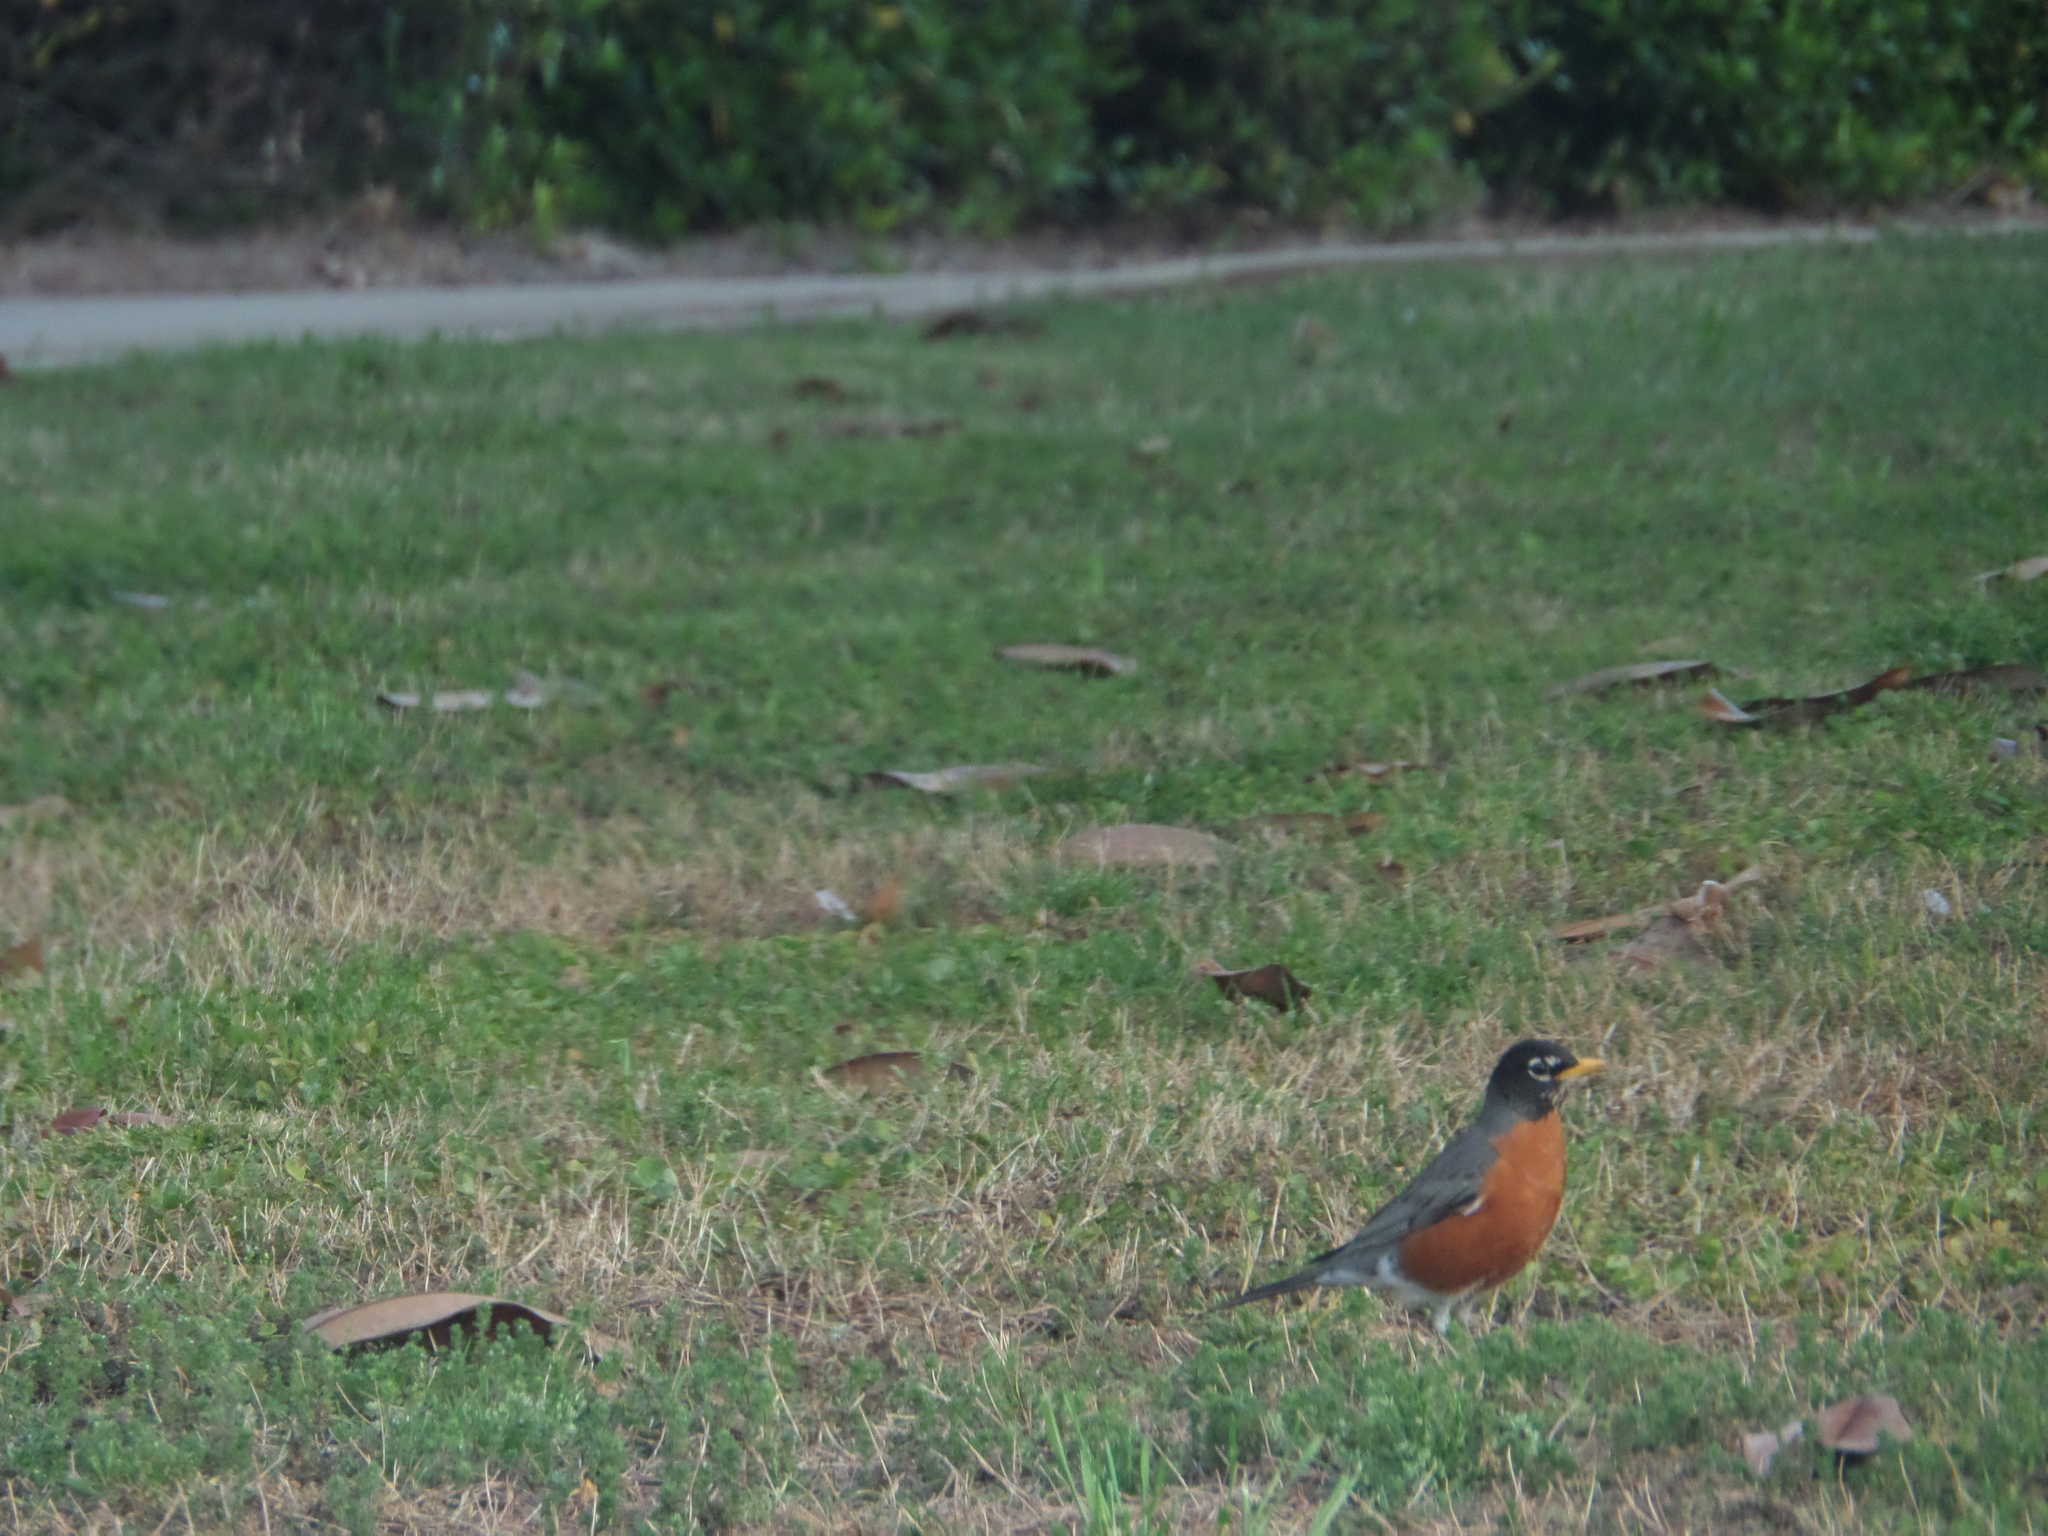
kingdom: Animalia
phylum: Chordata
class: Aves
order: Passeriformes
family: Turdidae
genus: Turdus
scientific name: Turdus migratorius
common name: American robin
